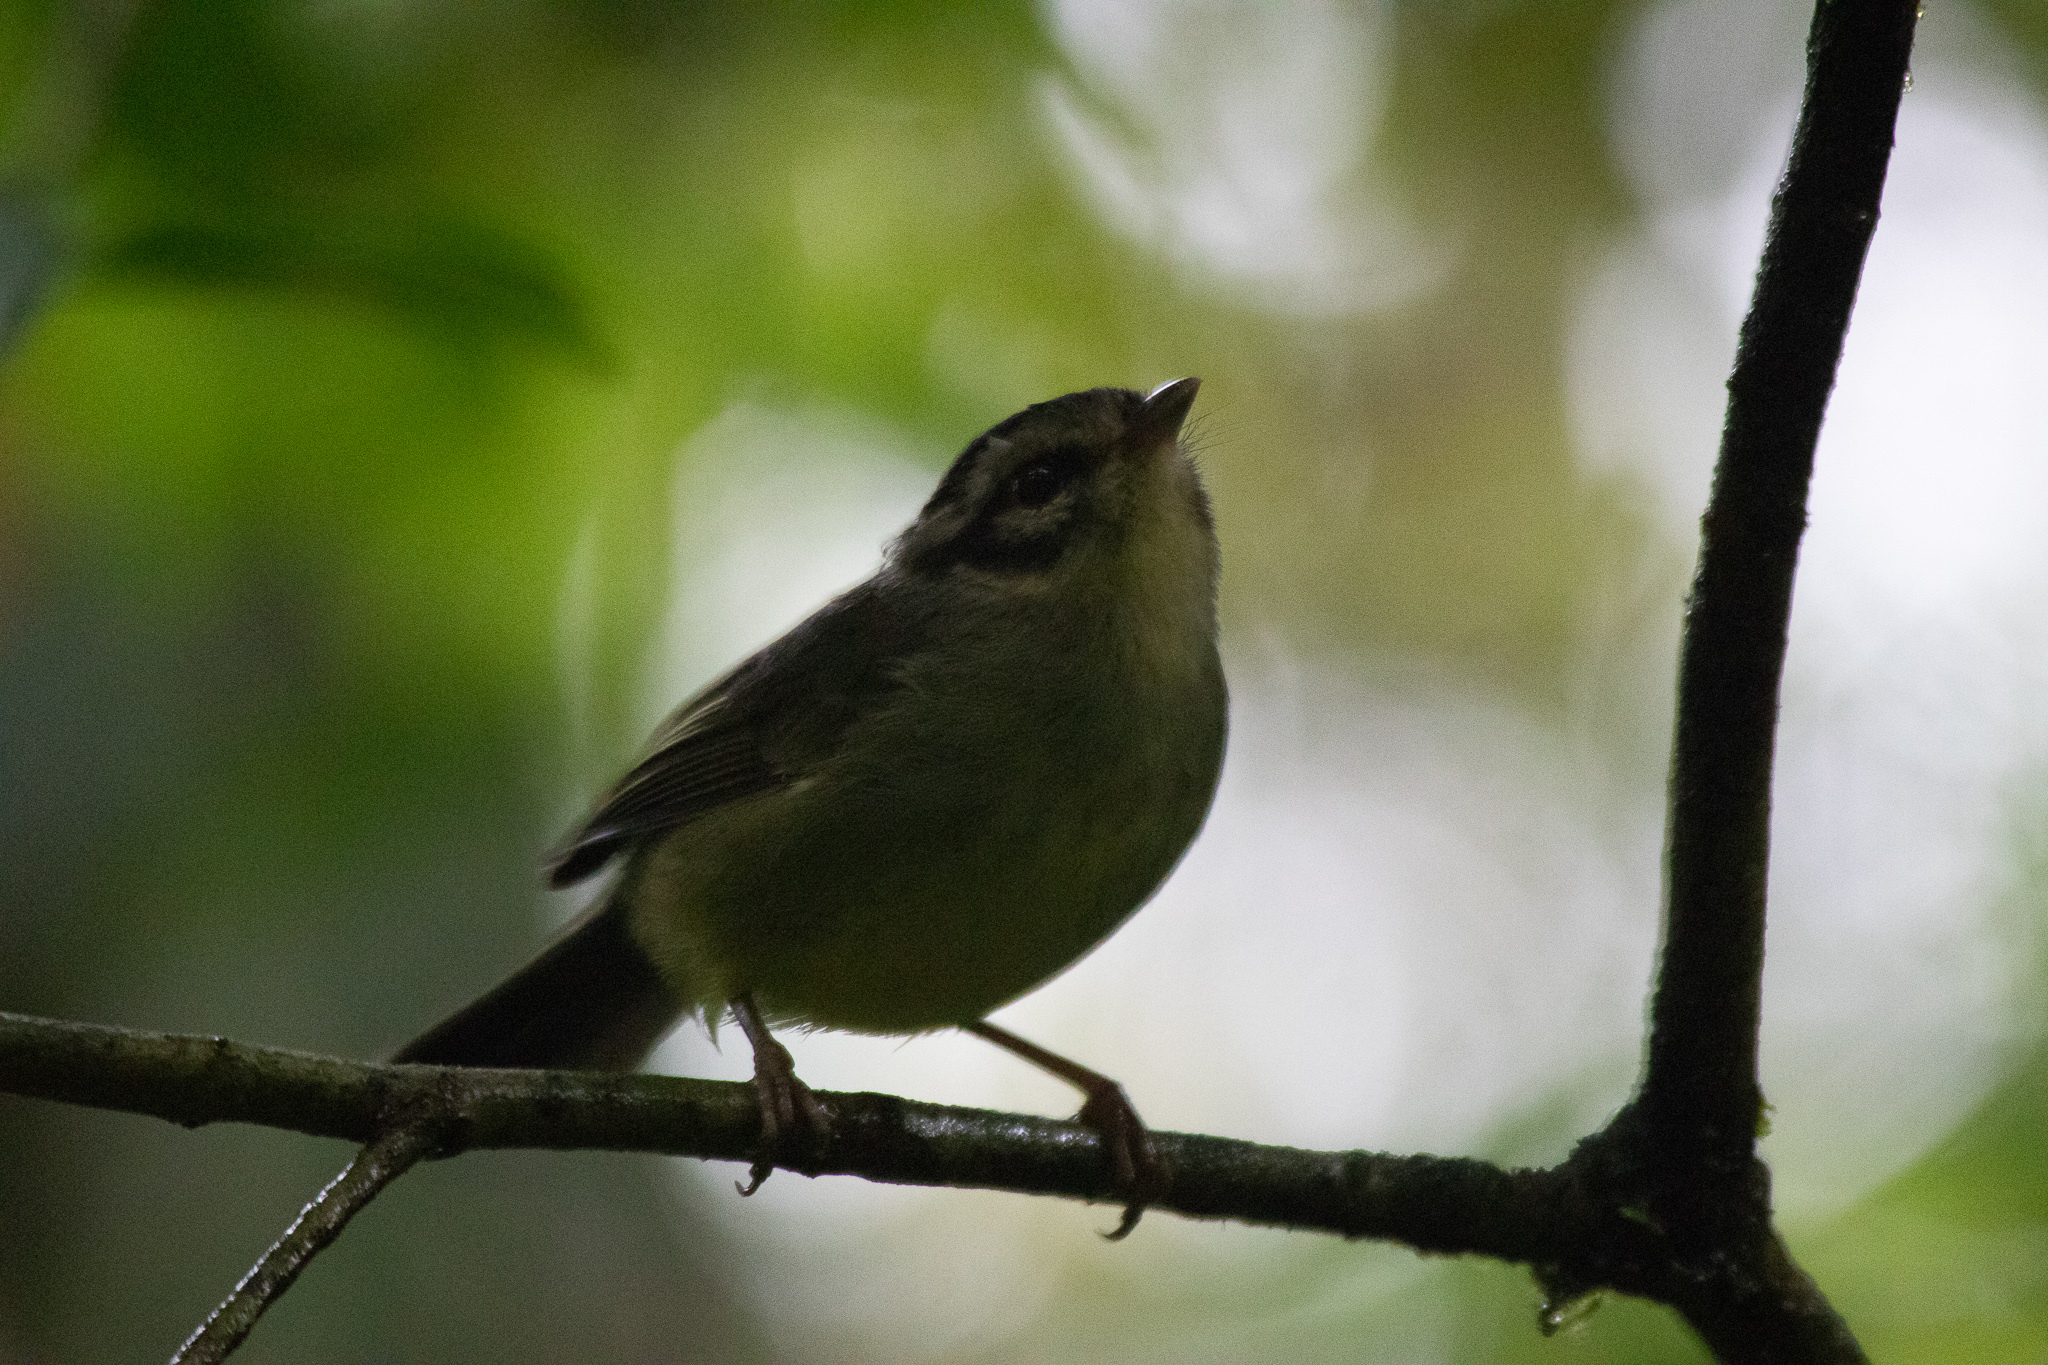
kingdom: Animalia
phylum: Chordata
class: Aves
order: Passeriformes
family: Parulidae
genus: Basileuterus
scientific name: Basileuterus melanotis
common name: Black-eared warbler
